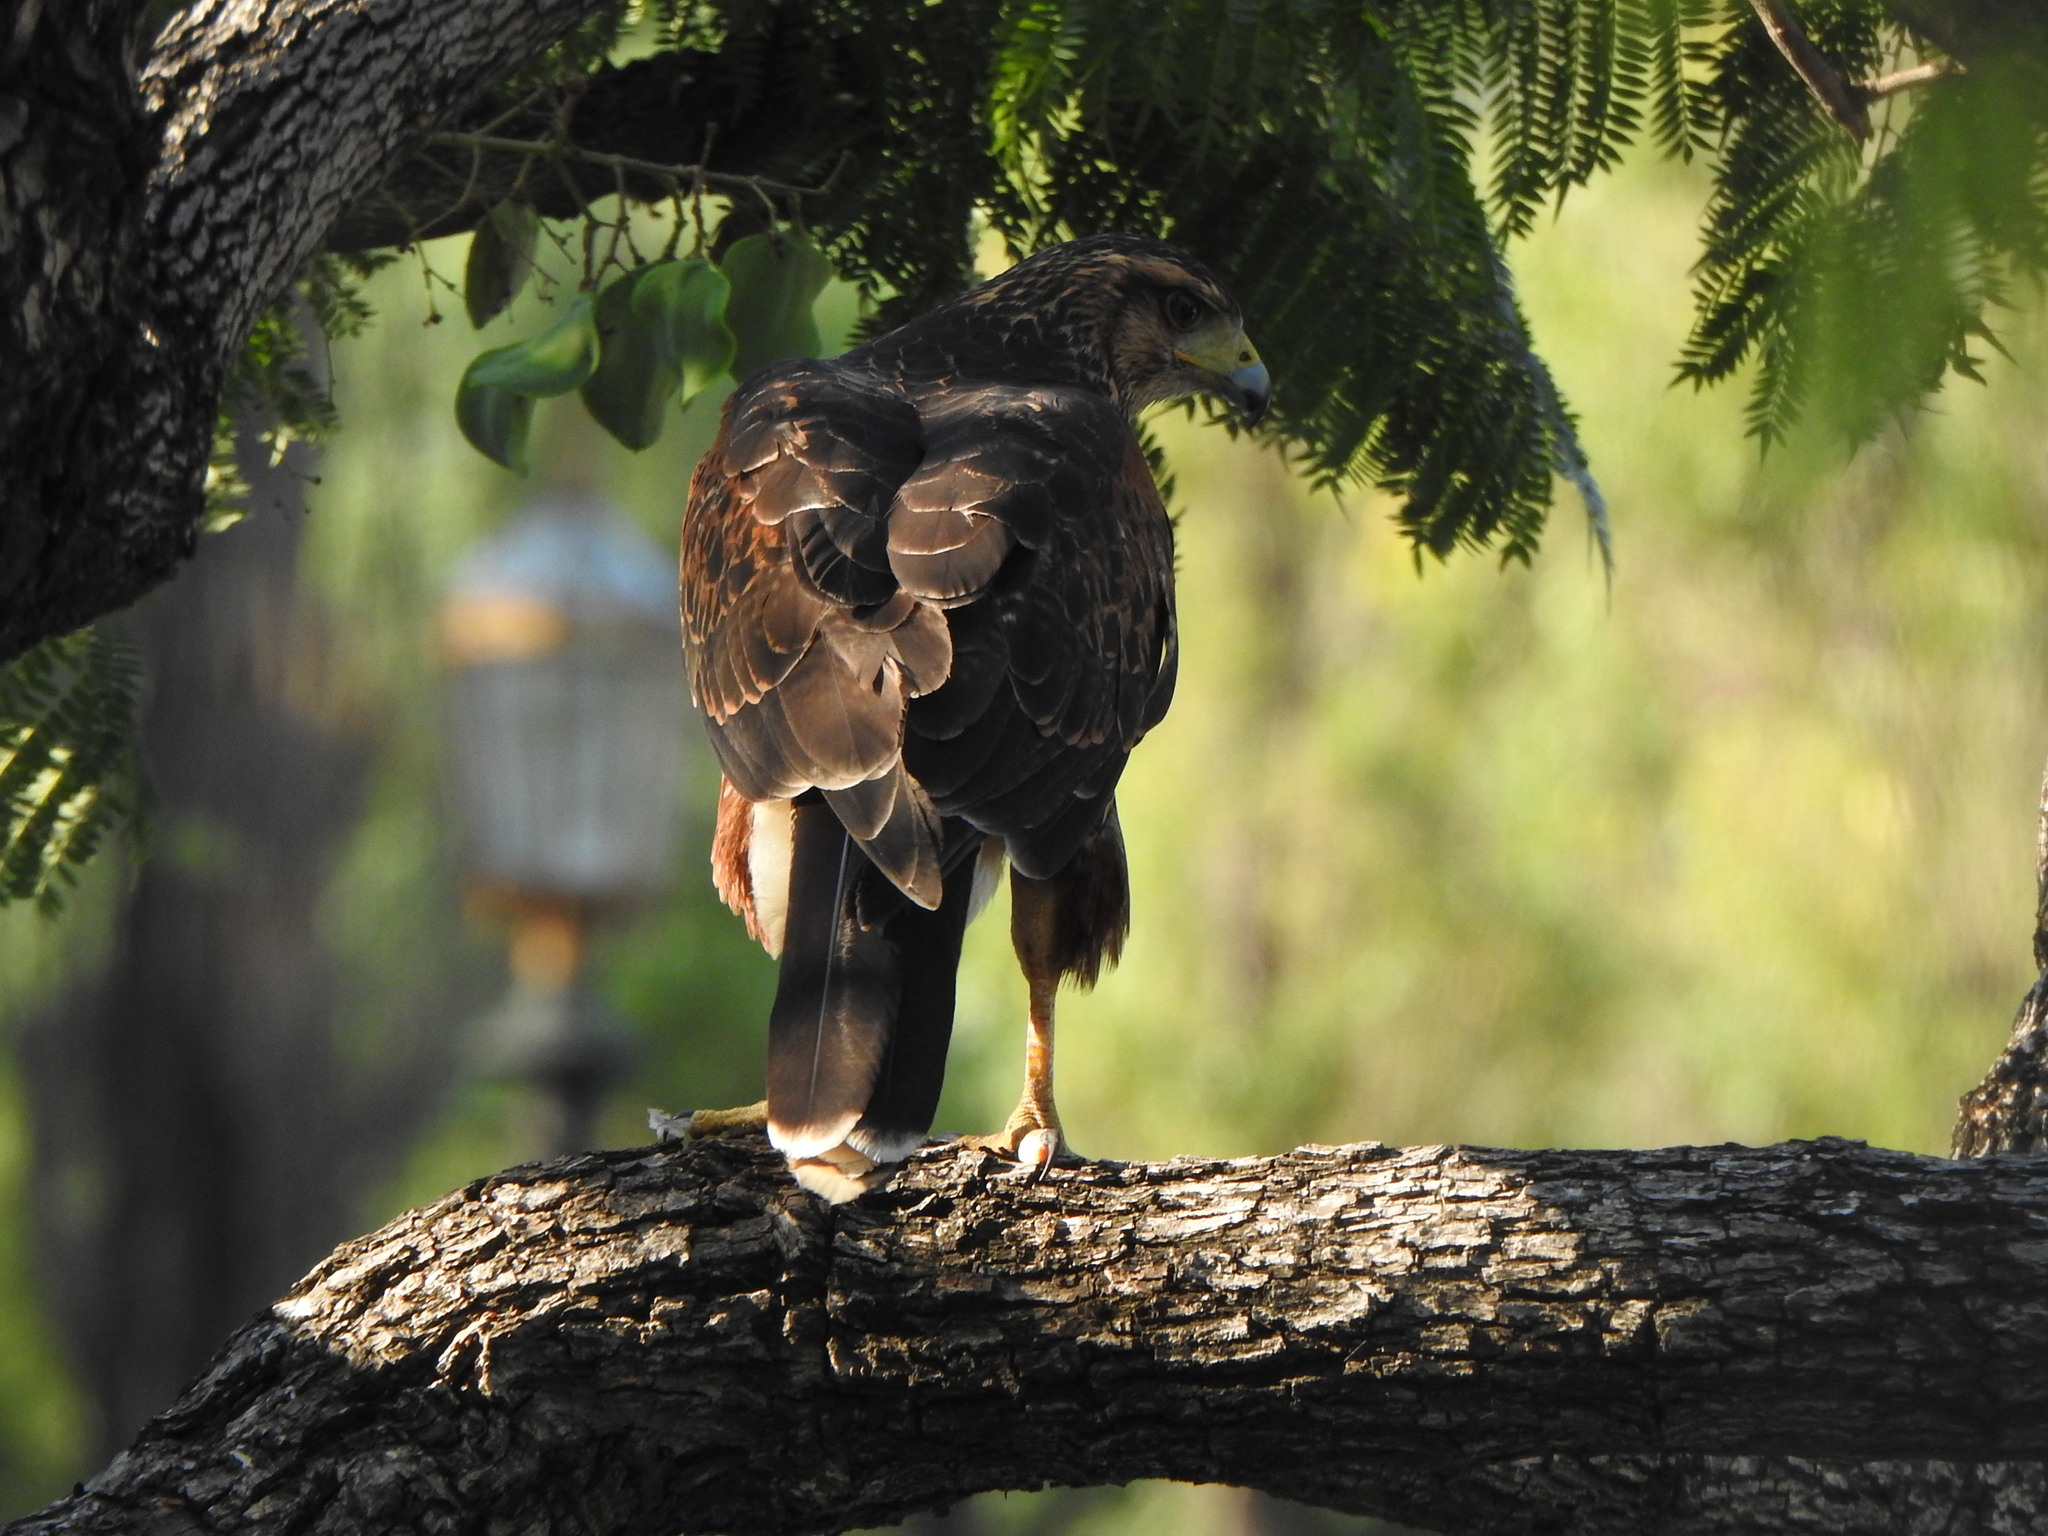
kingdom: Animalia
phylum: Chordata
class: Aves
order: Accipitriformes
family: Accipitridae
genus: Parabuteo
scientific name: Parabuteo unicinctus
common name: Harris's hawk
